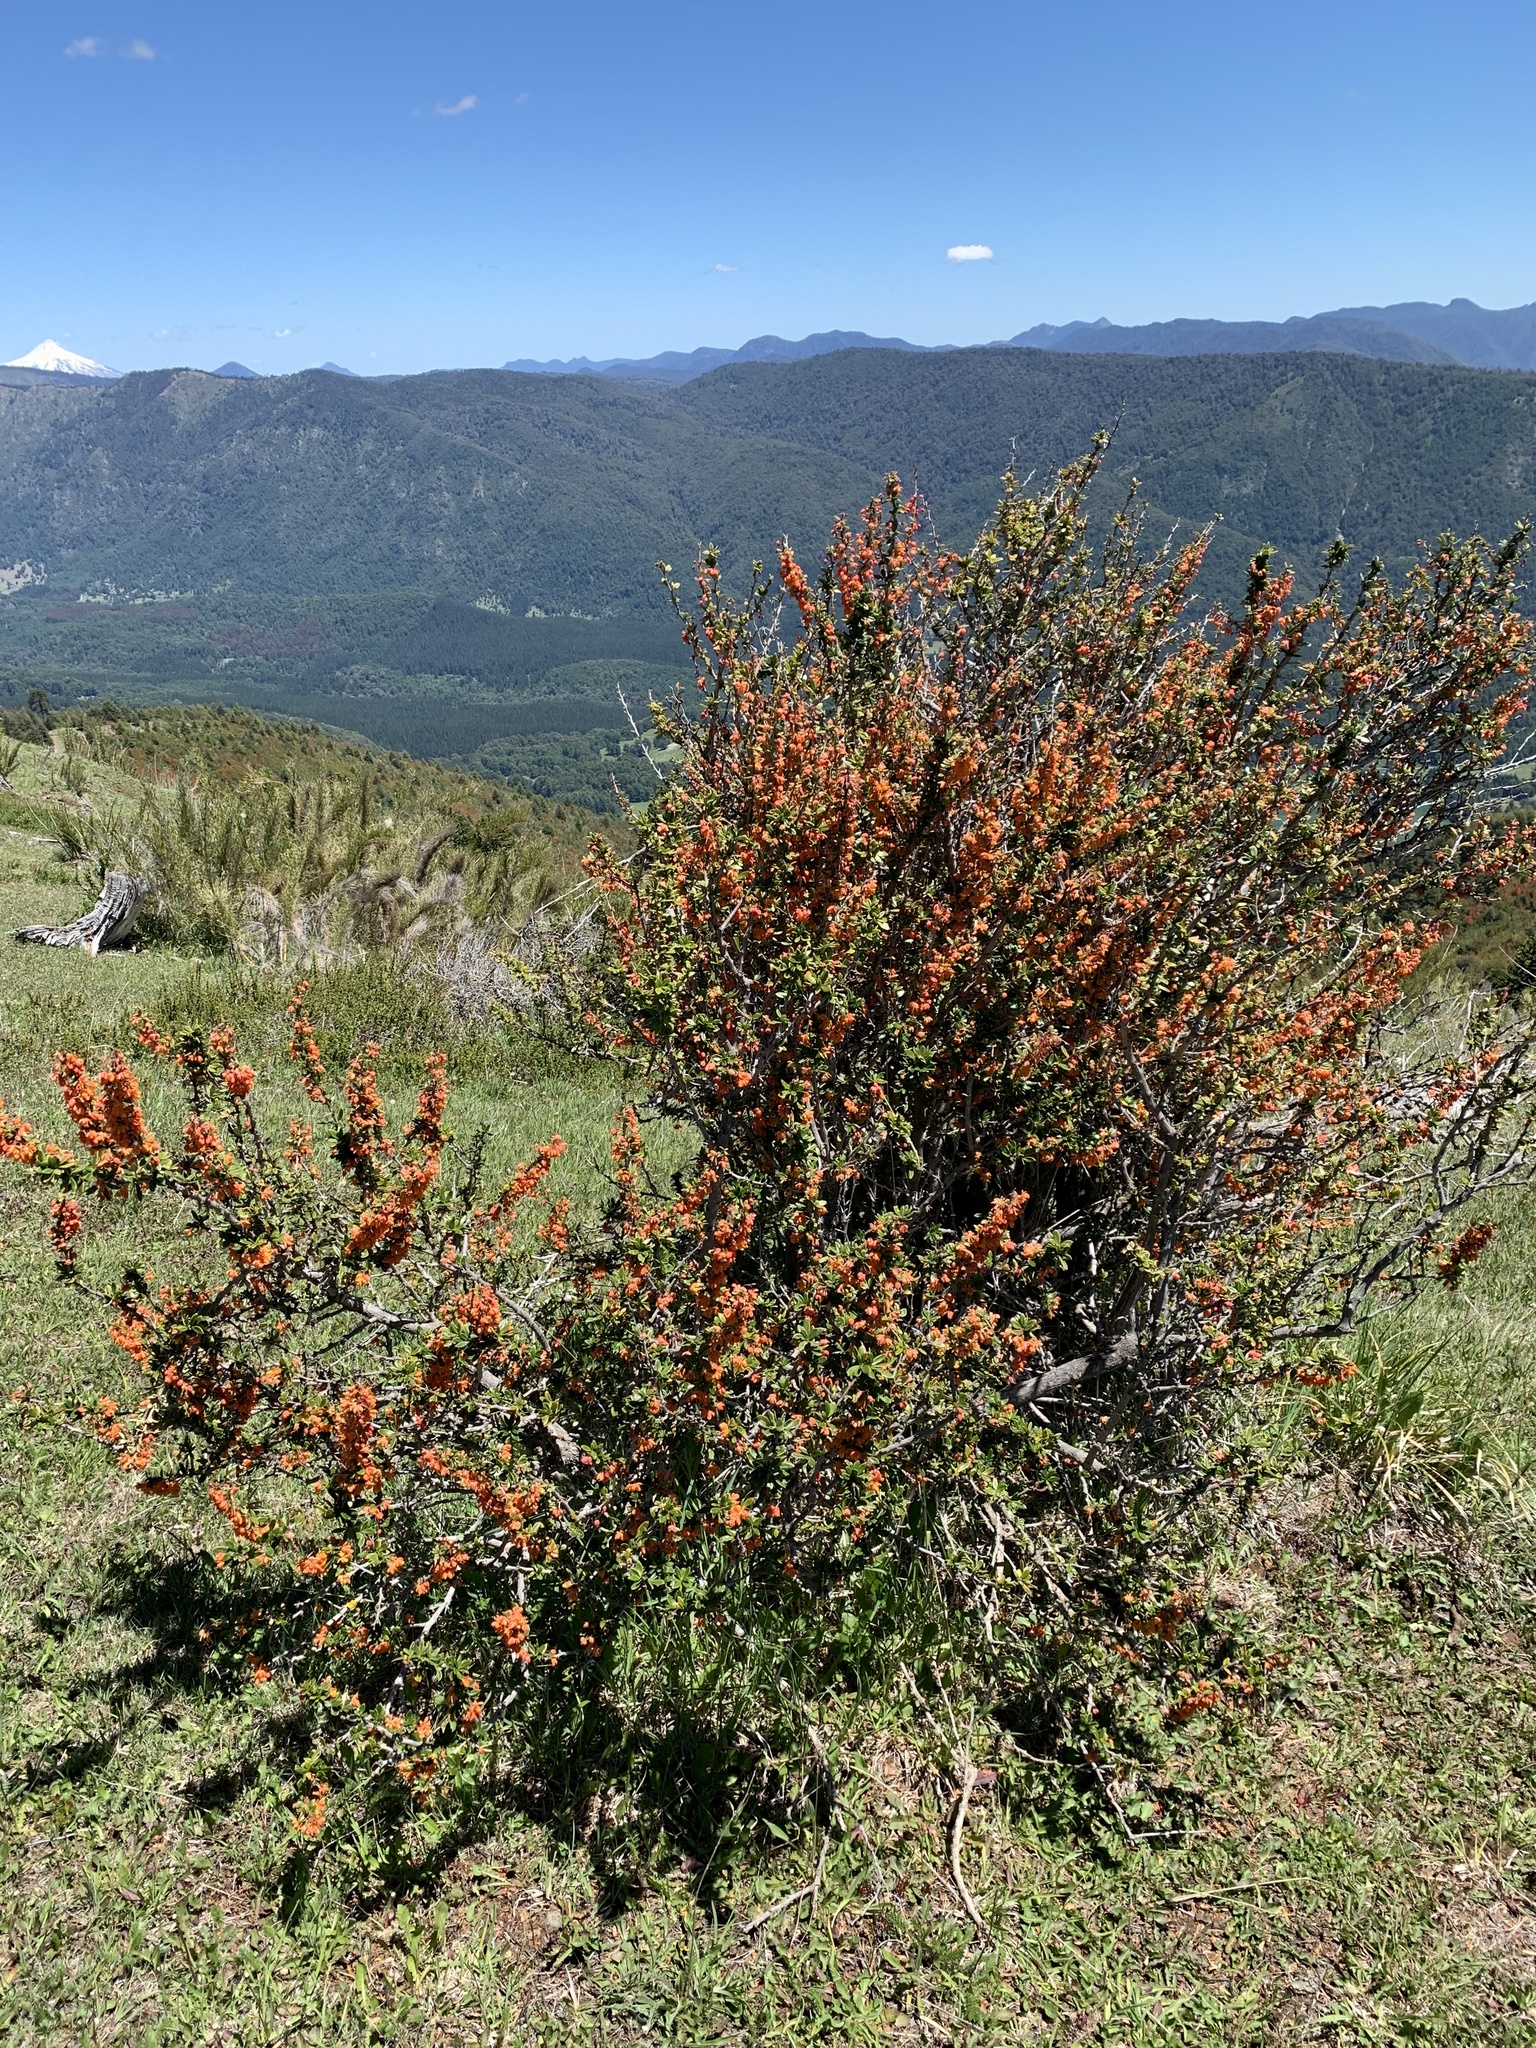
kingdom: Plantae
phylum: Tracheophyta
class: Magnoliopsida
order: Ranunculales
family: Berberidaceae
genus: Berberis
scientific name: Berberis trigona
